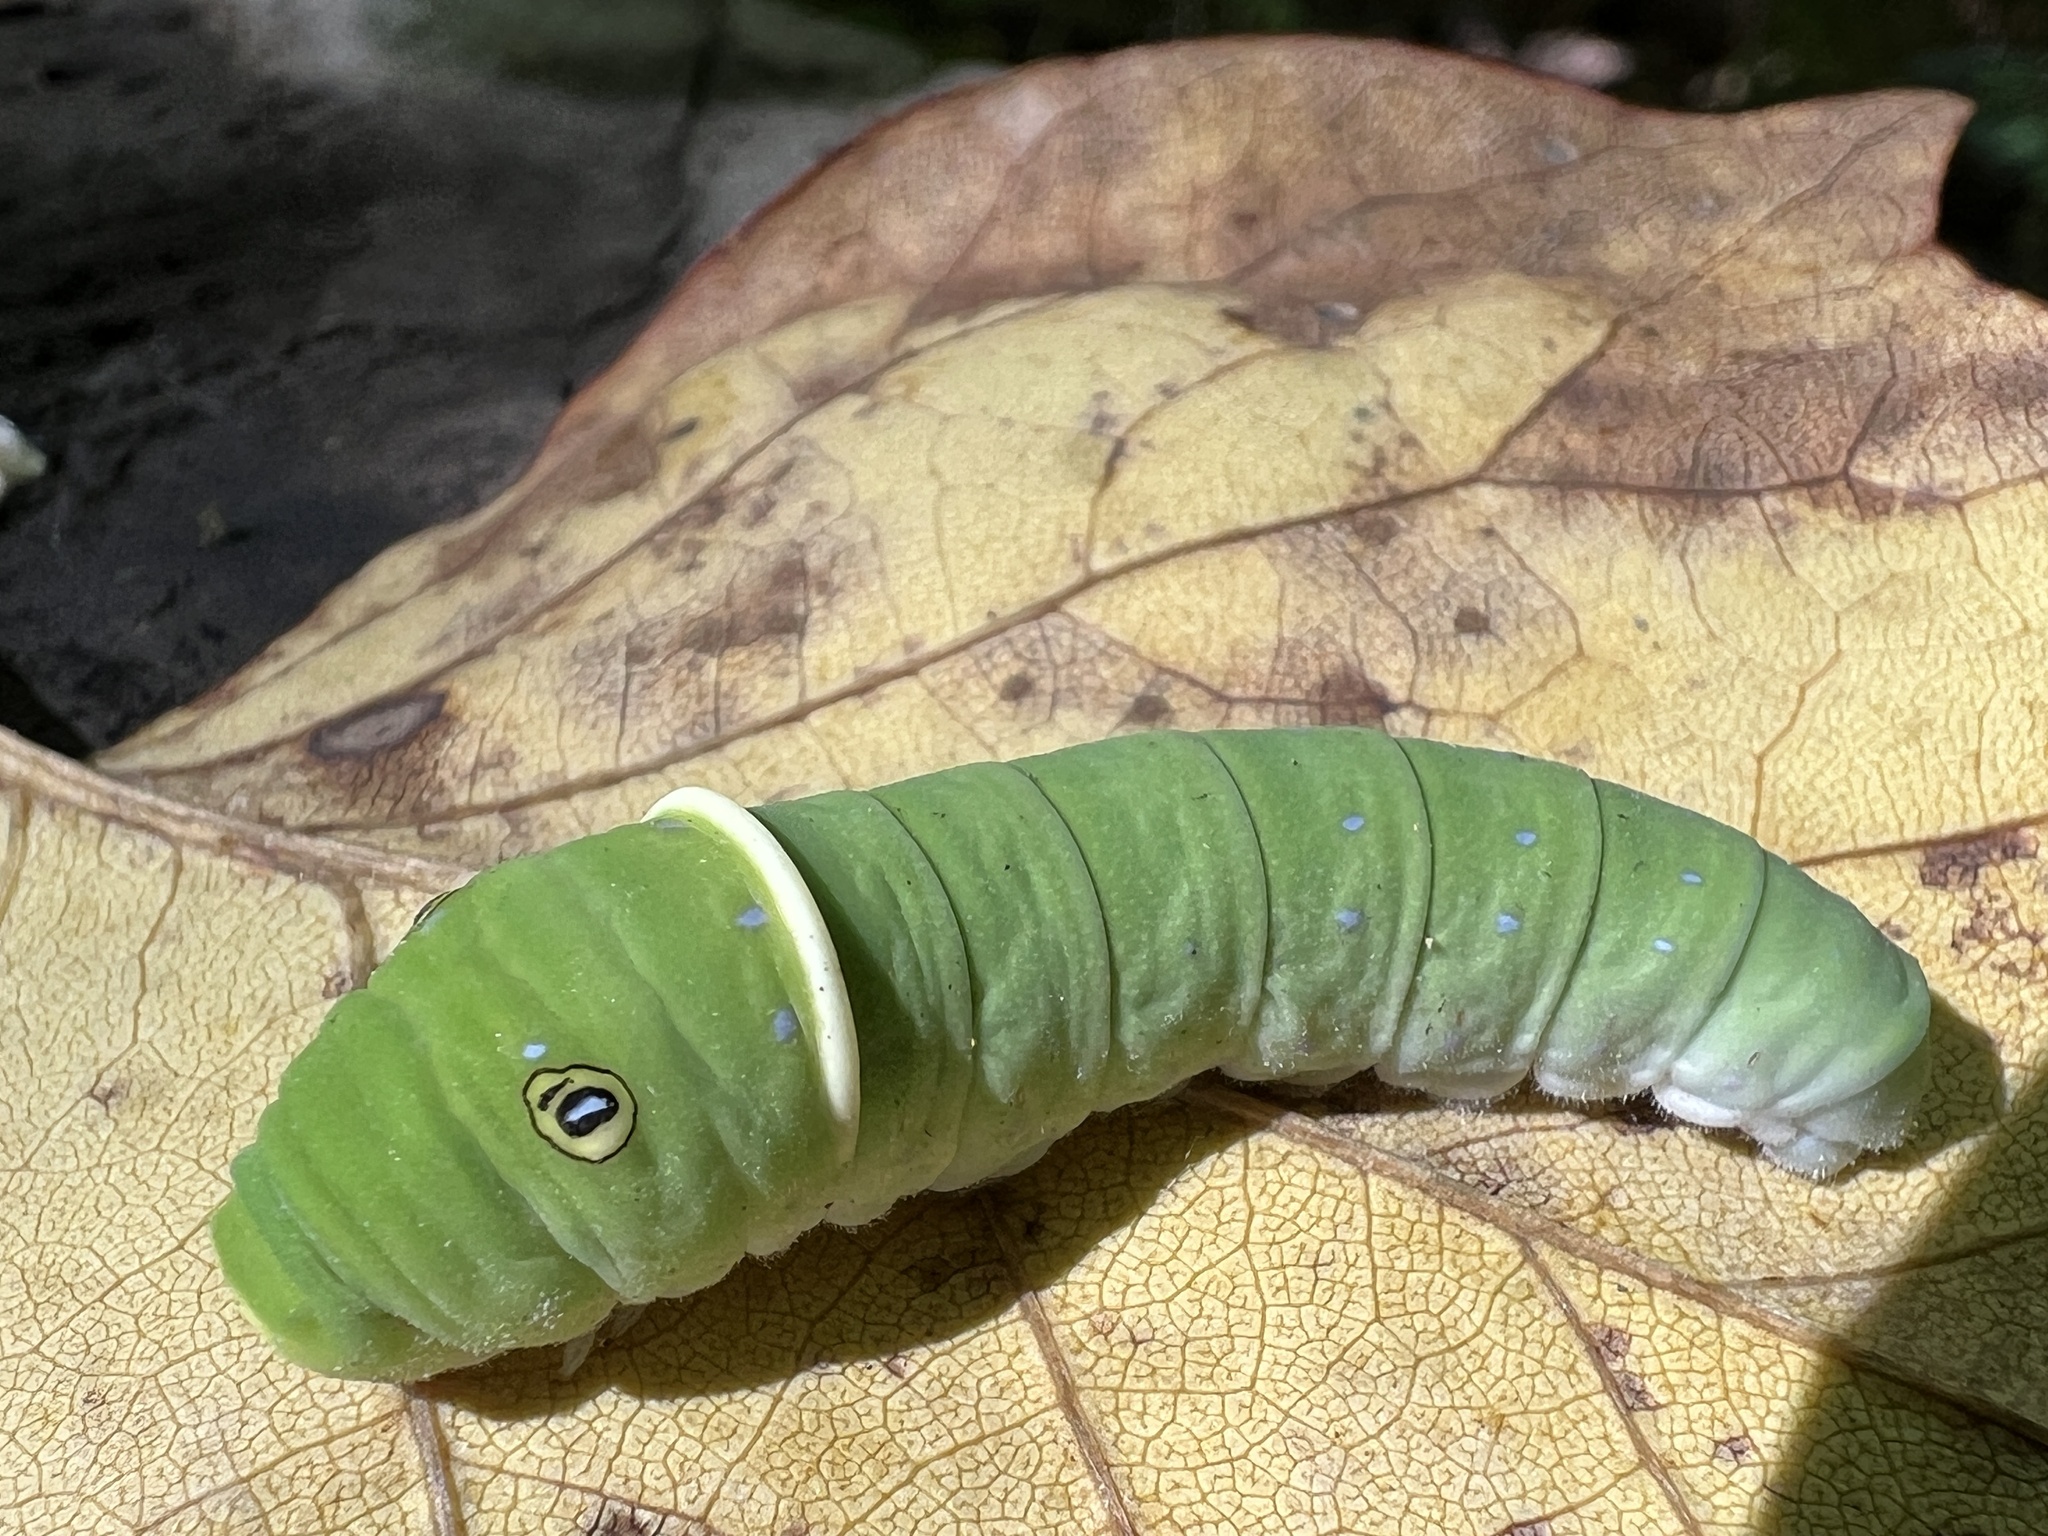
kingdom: Animalia
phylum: Arthropoda
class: Insecta
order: Lepidoptera
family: Papilionidae
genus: Papilio
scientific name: Papilio glaucus
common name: Tiger swallowtail
